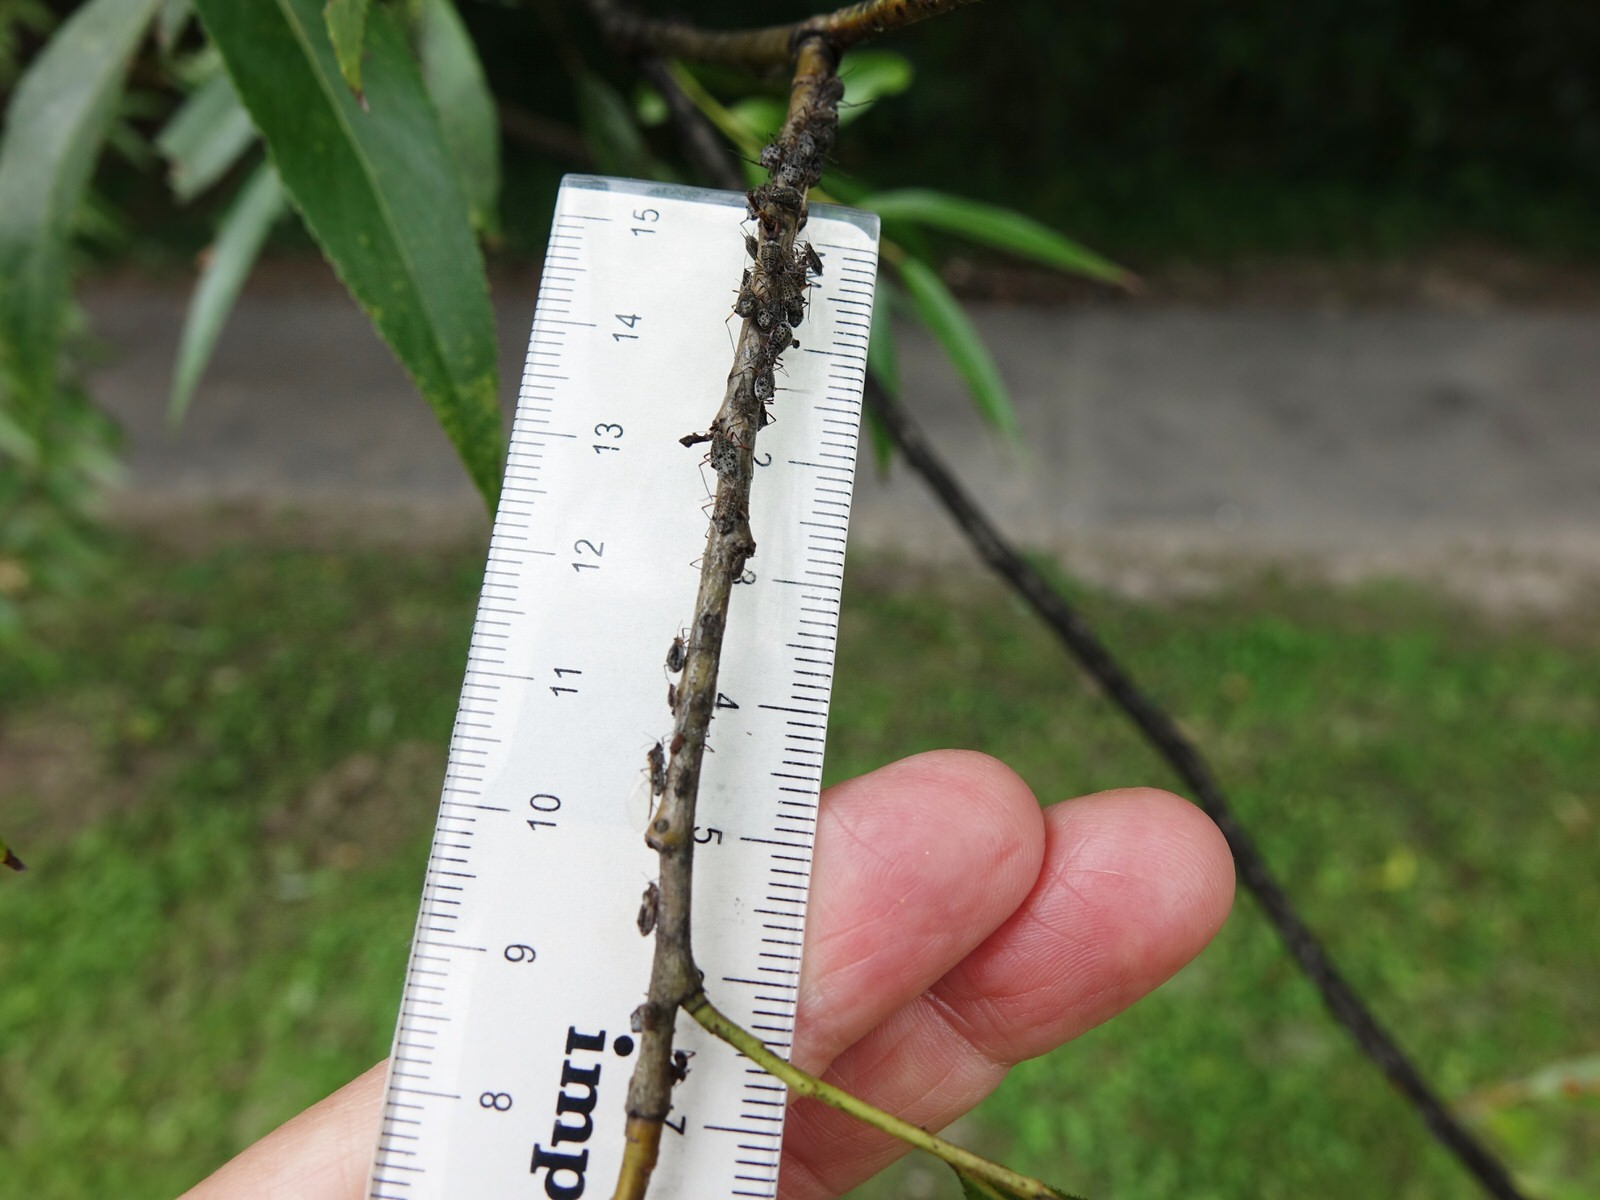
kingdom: Animalia
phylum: Arthropoda
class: Insecta
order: Hemiptera
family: Aphididae
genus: Tuberolachnus
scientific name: Tuberolachnus salignus
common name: Giant willow aphid
